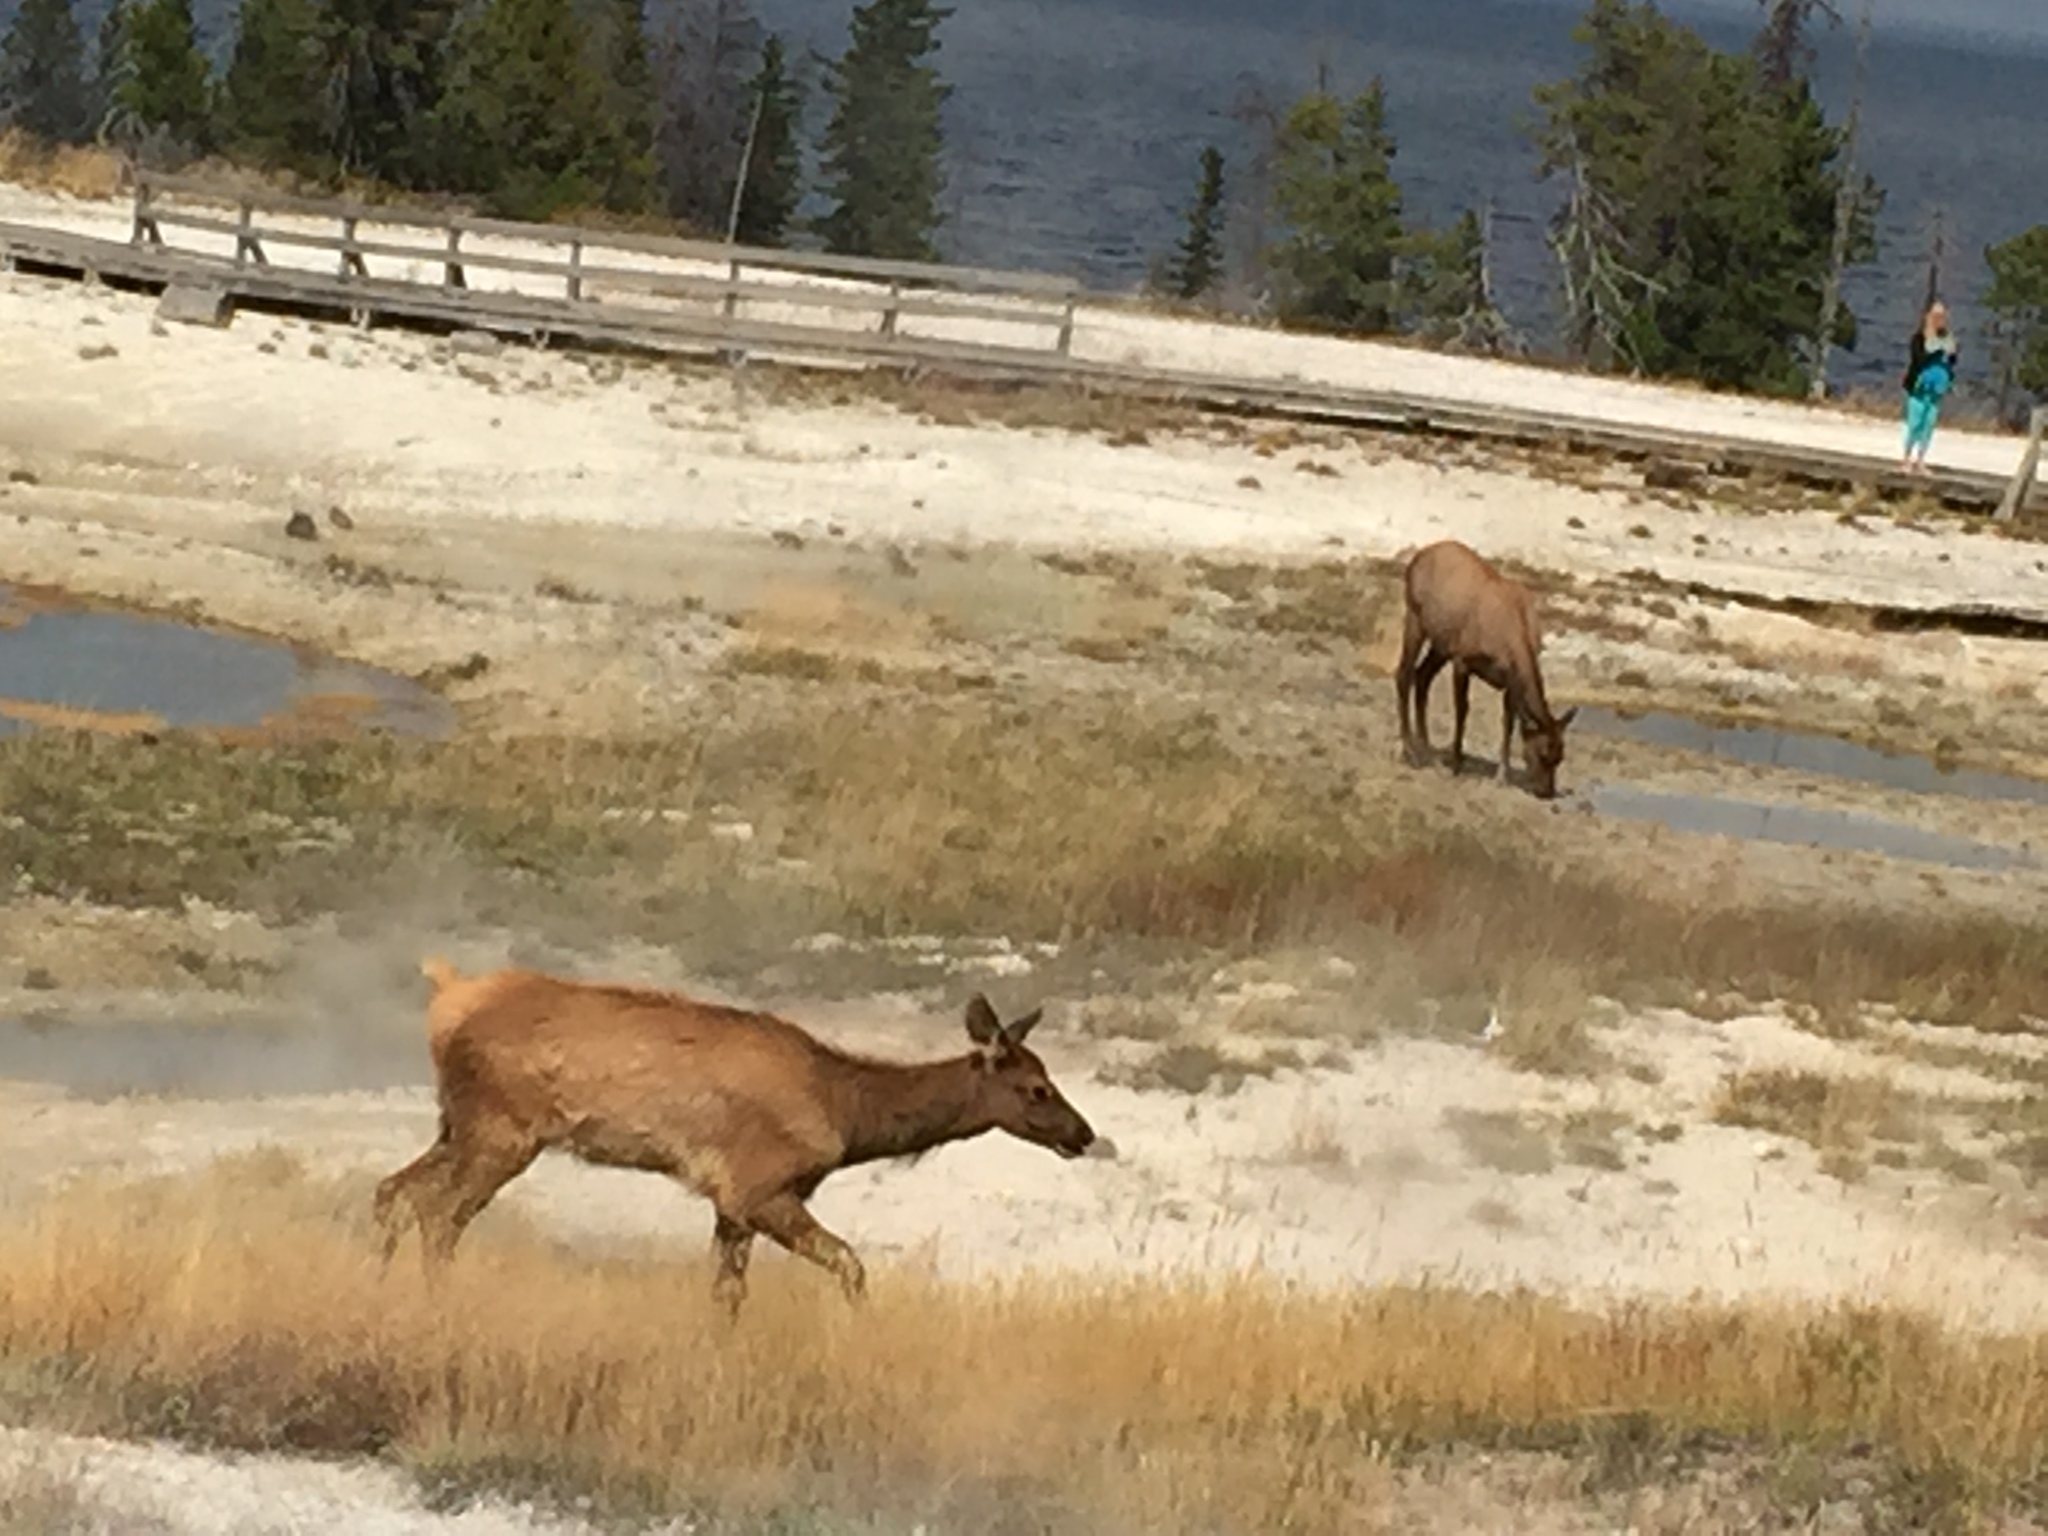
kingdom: Animalia
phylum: Chordata
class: Mammalia
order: Artiodactyla
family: Cervidae
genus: Cervus
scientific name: Cervus elaphus
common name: Red deer
